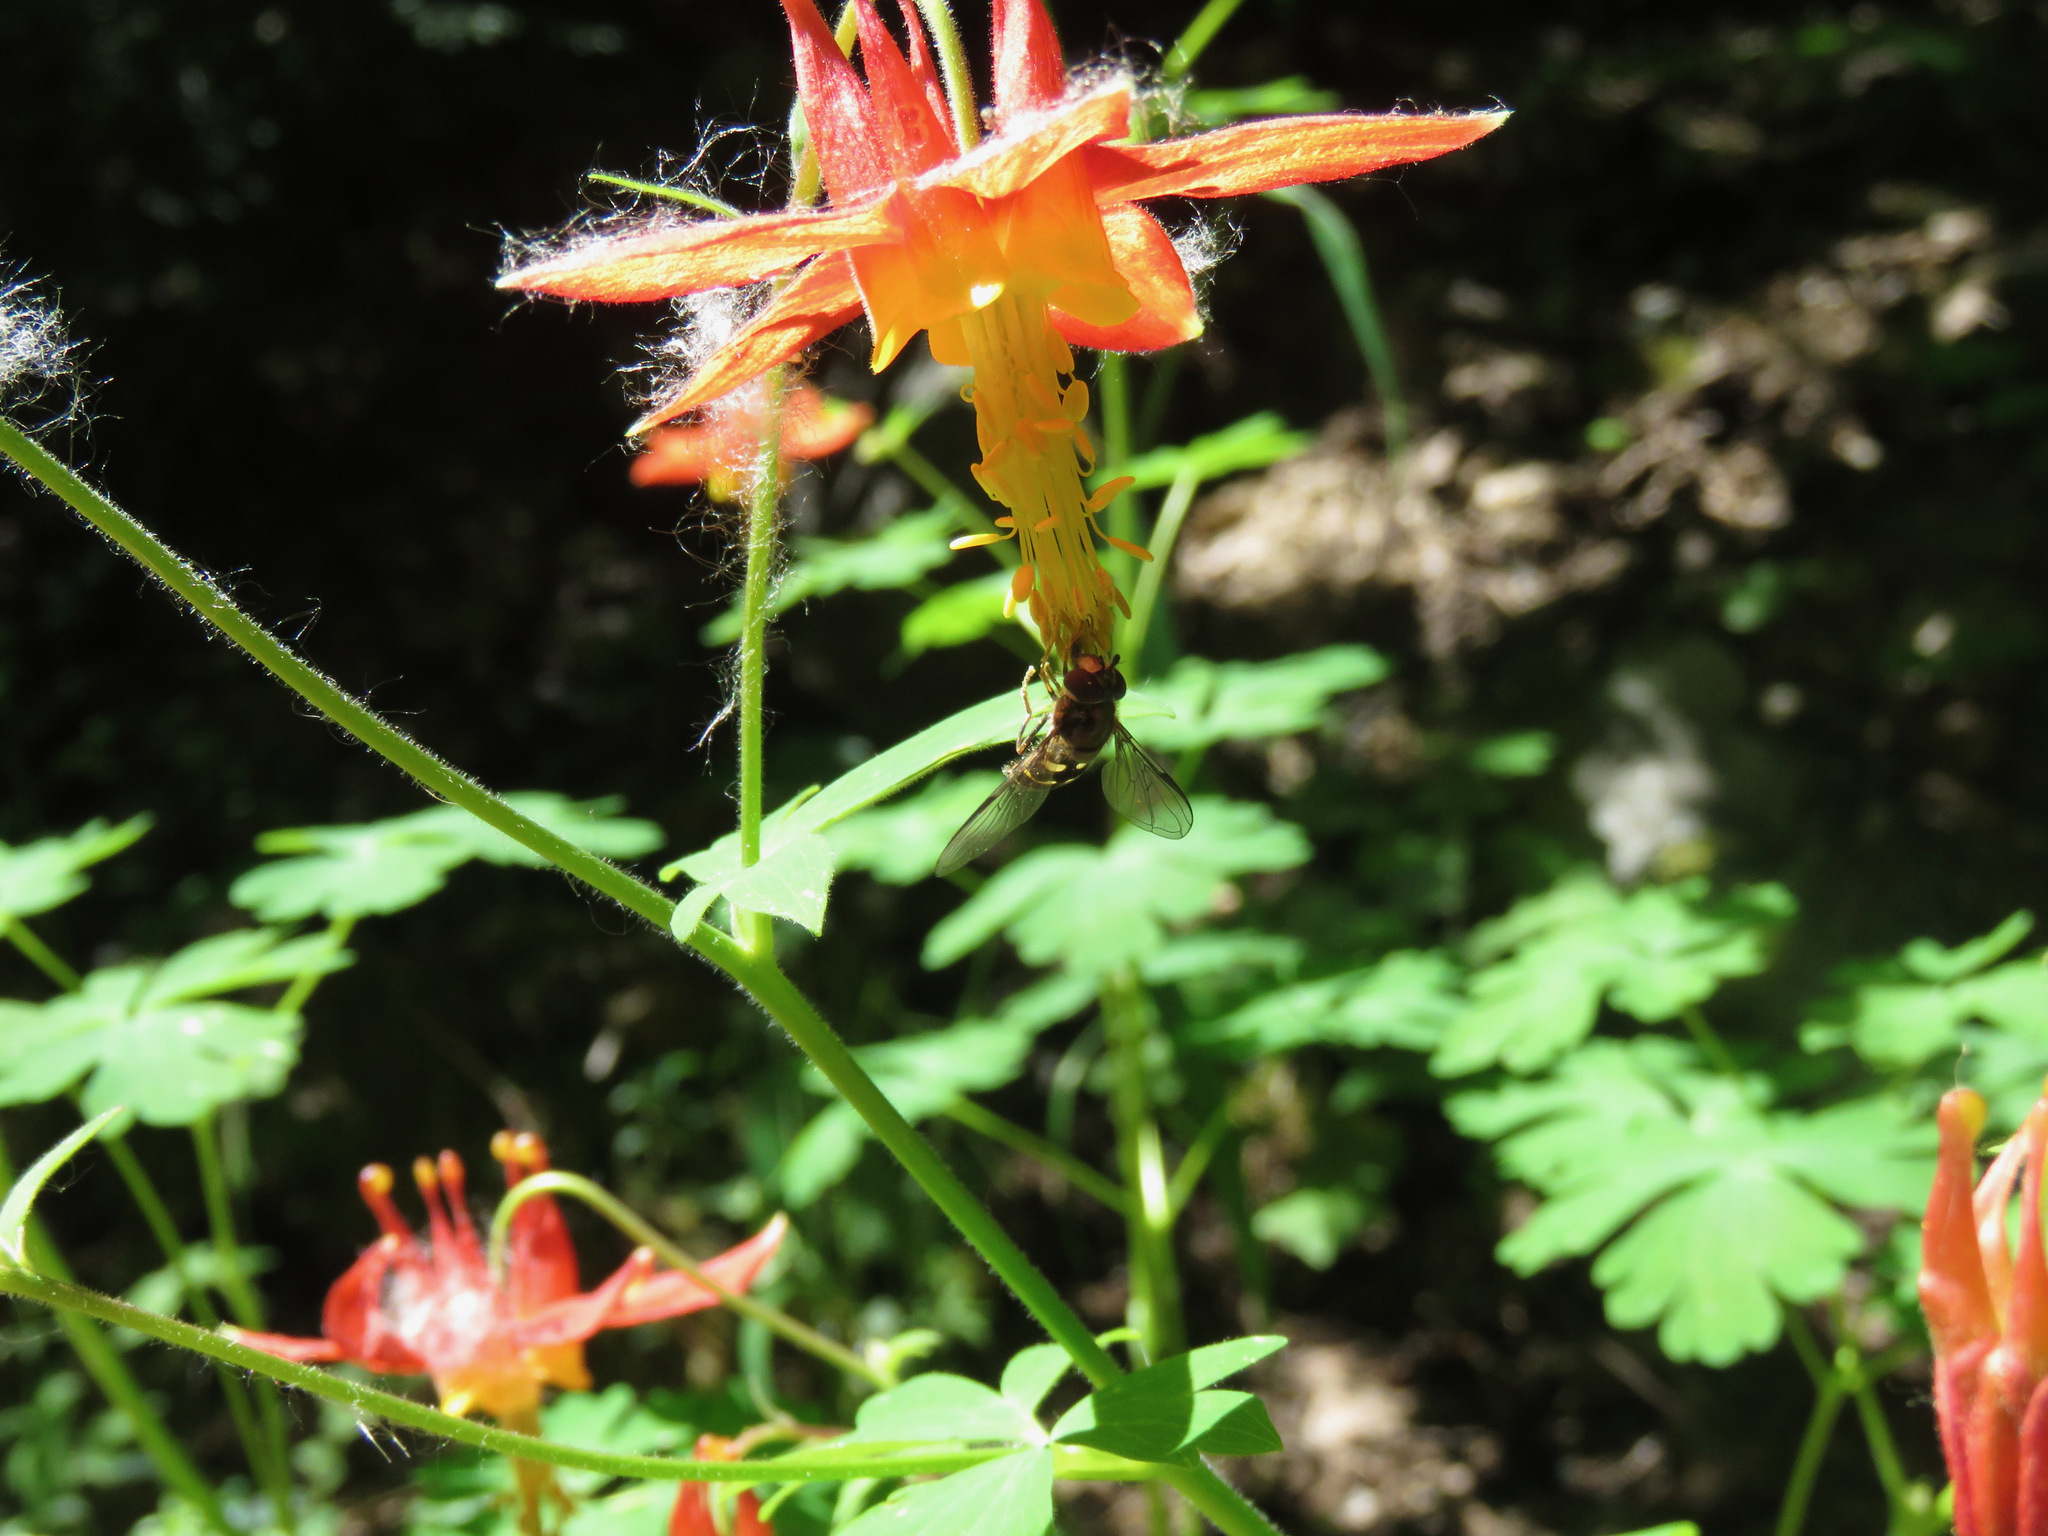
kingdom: Plantae
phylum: Tracheophyta
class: Magnoliopsida
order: Ranunculales
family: Ranunculaceae
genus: Aquilegia
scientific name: Aquilegia formosa
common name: Sitka columbine
